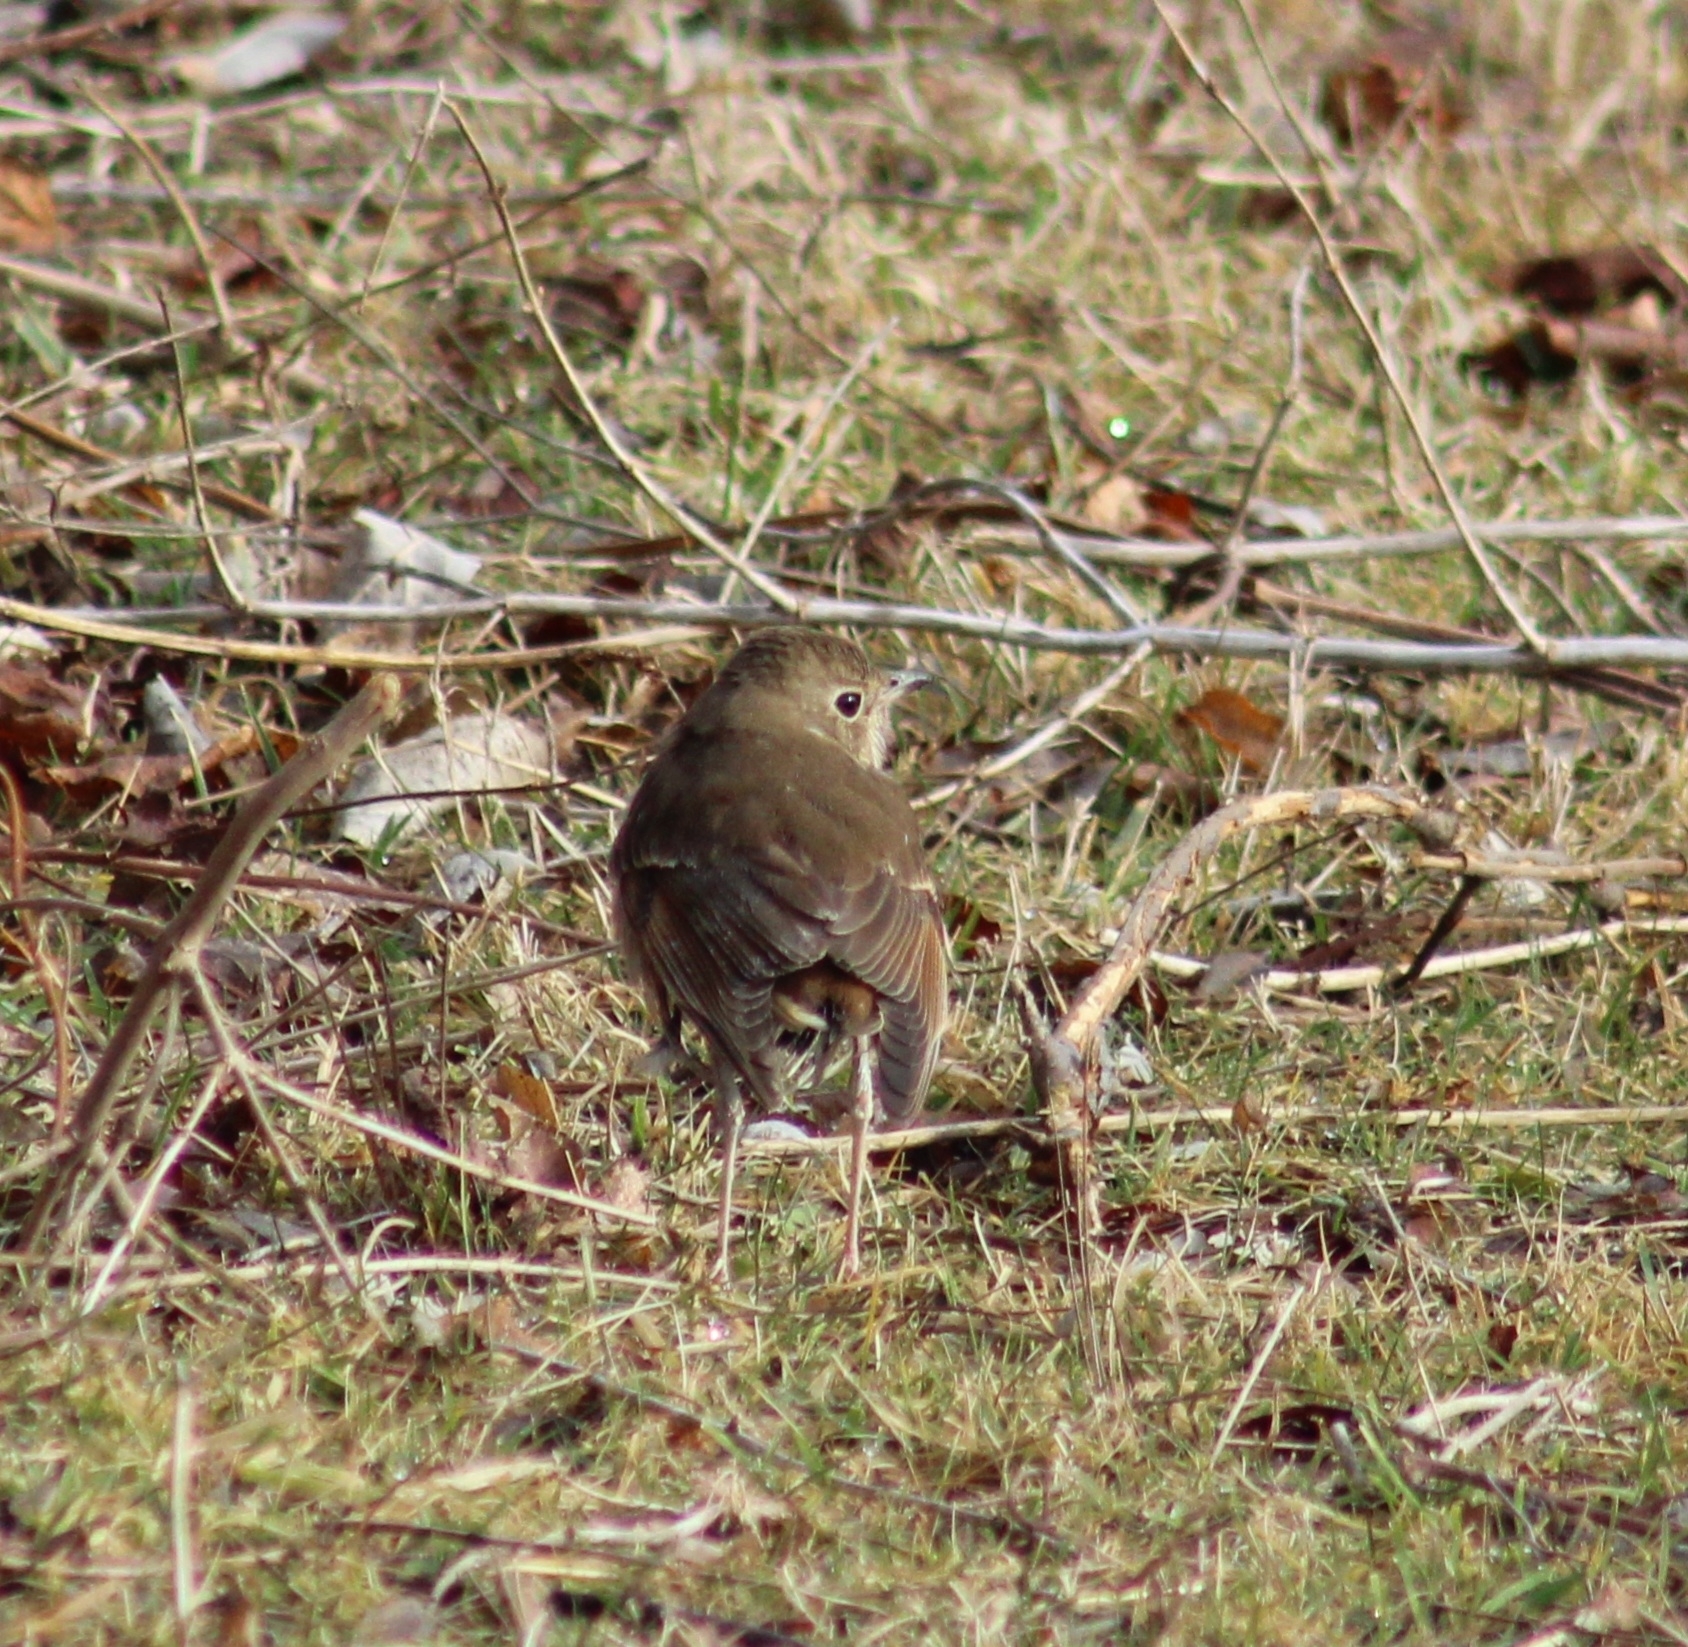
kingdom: Animalia
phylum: Chordata
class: Aves
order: Passeriformes
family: Turdidae
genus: Catharus
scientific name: Catharus guttatus
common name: Hermit thrush
